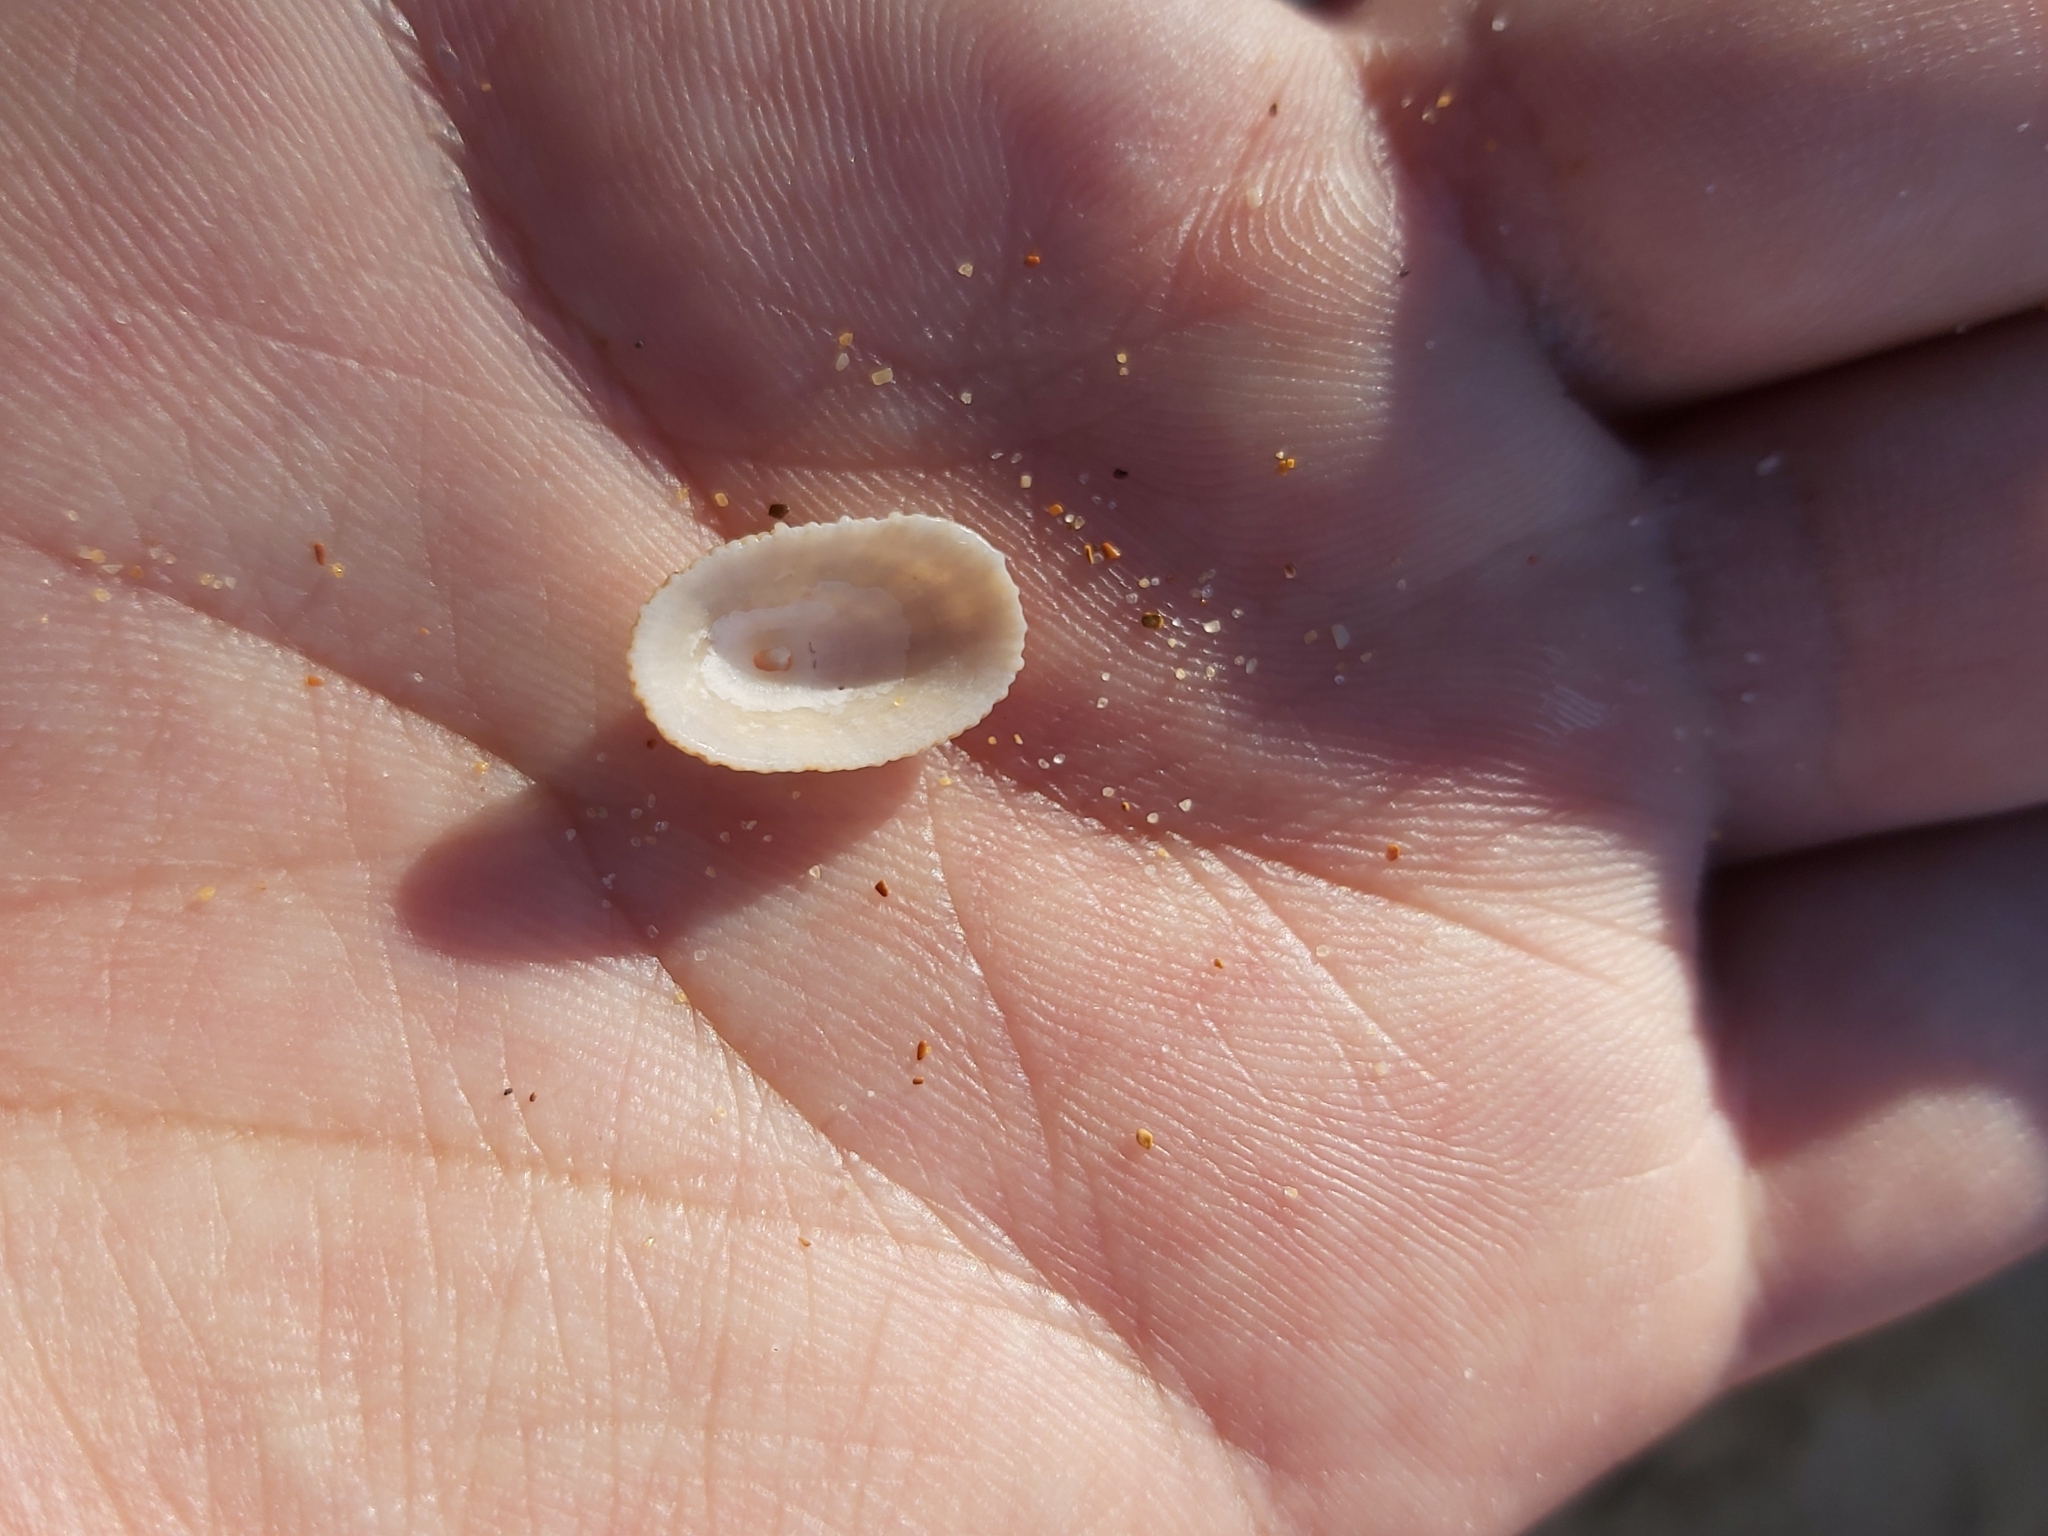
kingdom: Animalia
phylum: Mollusca
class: Gastropoda
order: Lepetellida
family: Fissurellidae
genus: Diodora
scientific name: Diodora lineata
